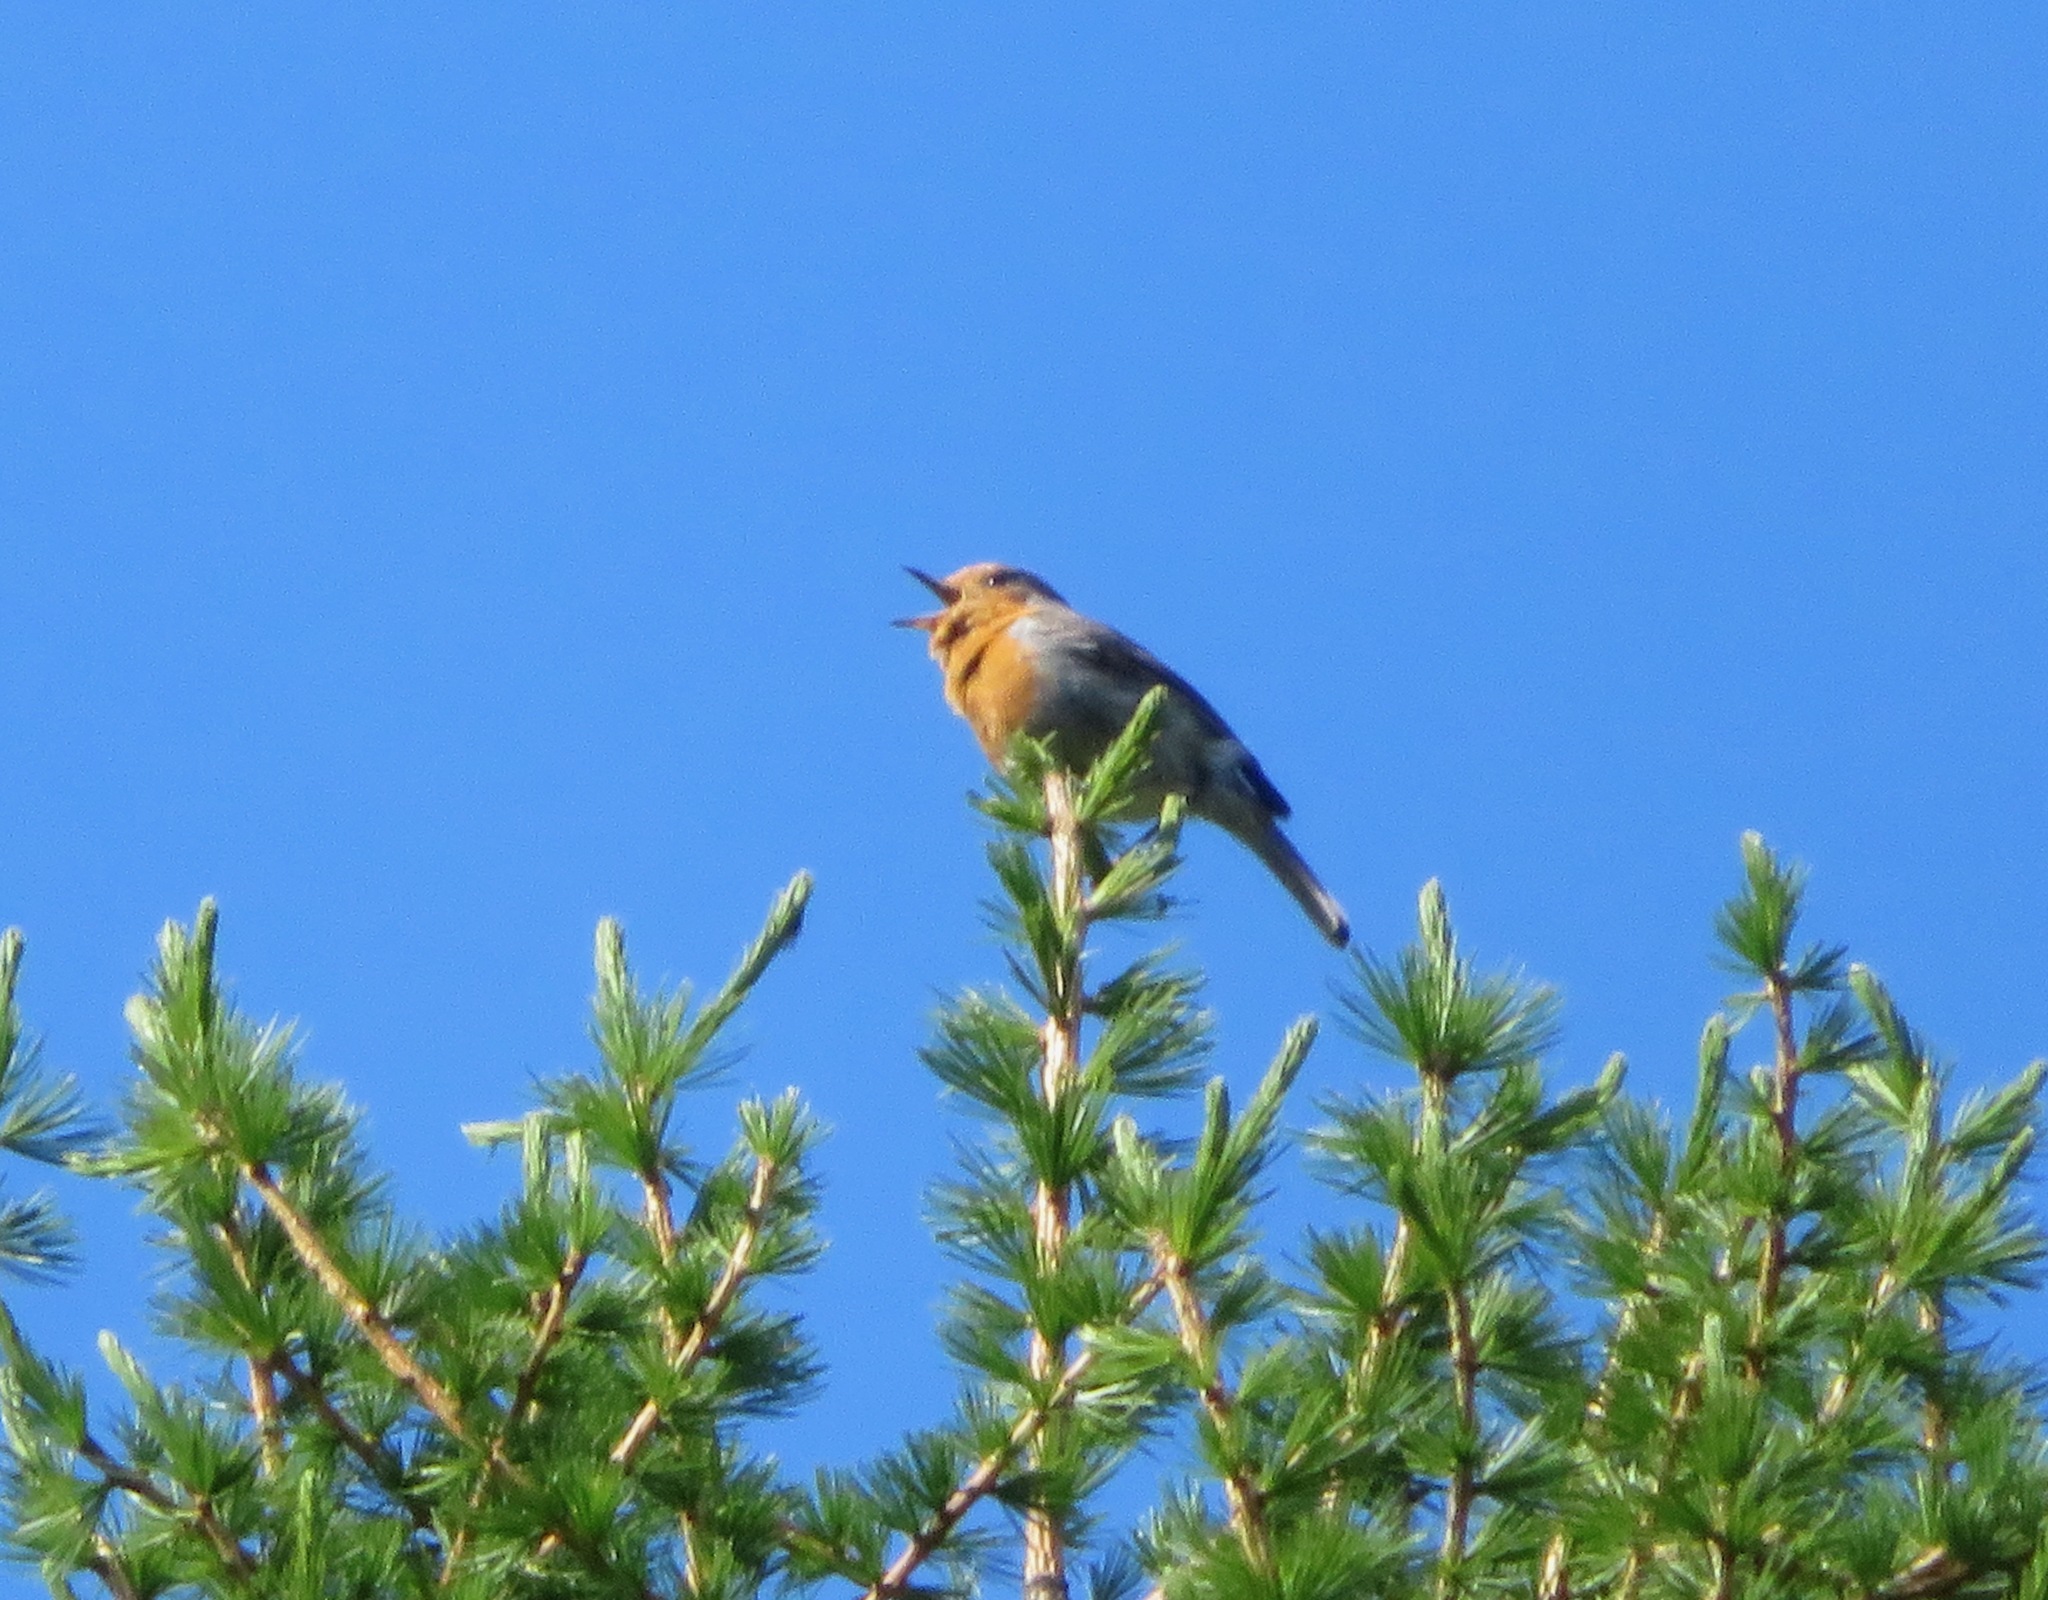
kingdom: Animalia
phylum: Chordata
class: Aves
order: Passeriformes
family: Muscicapidae
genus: Erithacus
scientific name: Erithacus rubecula
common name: European robin
